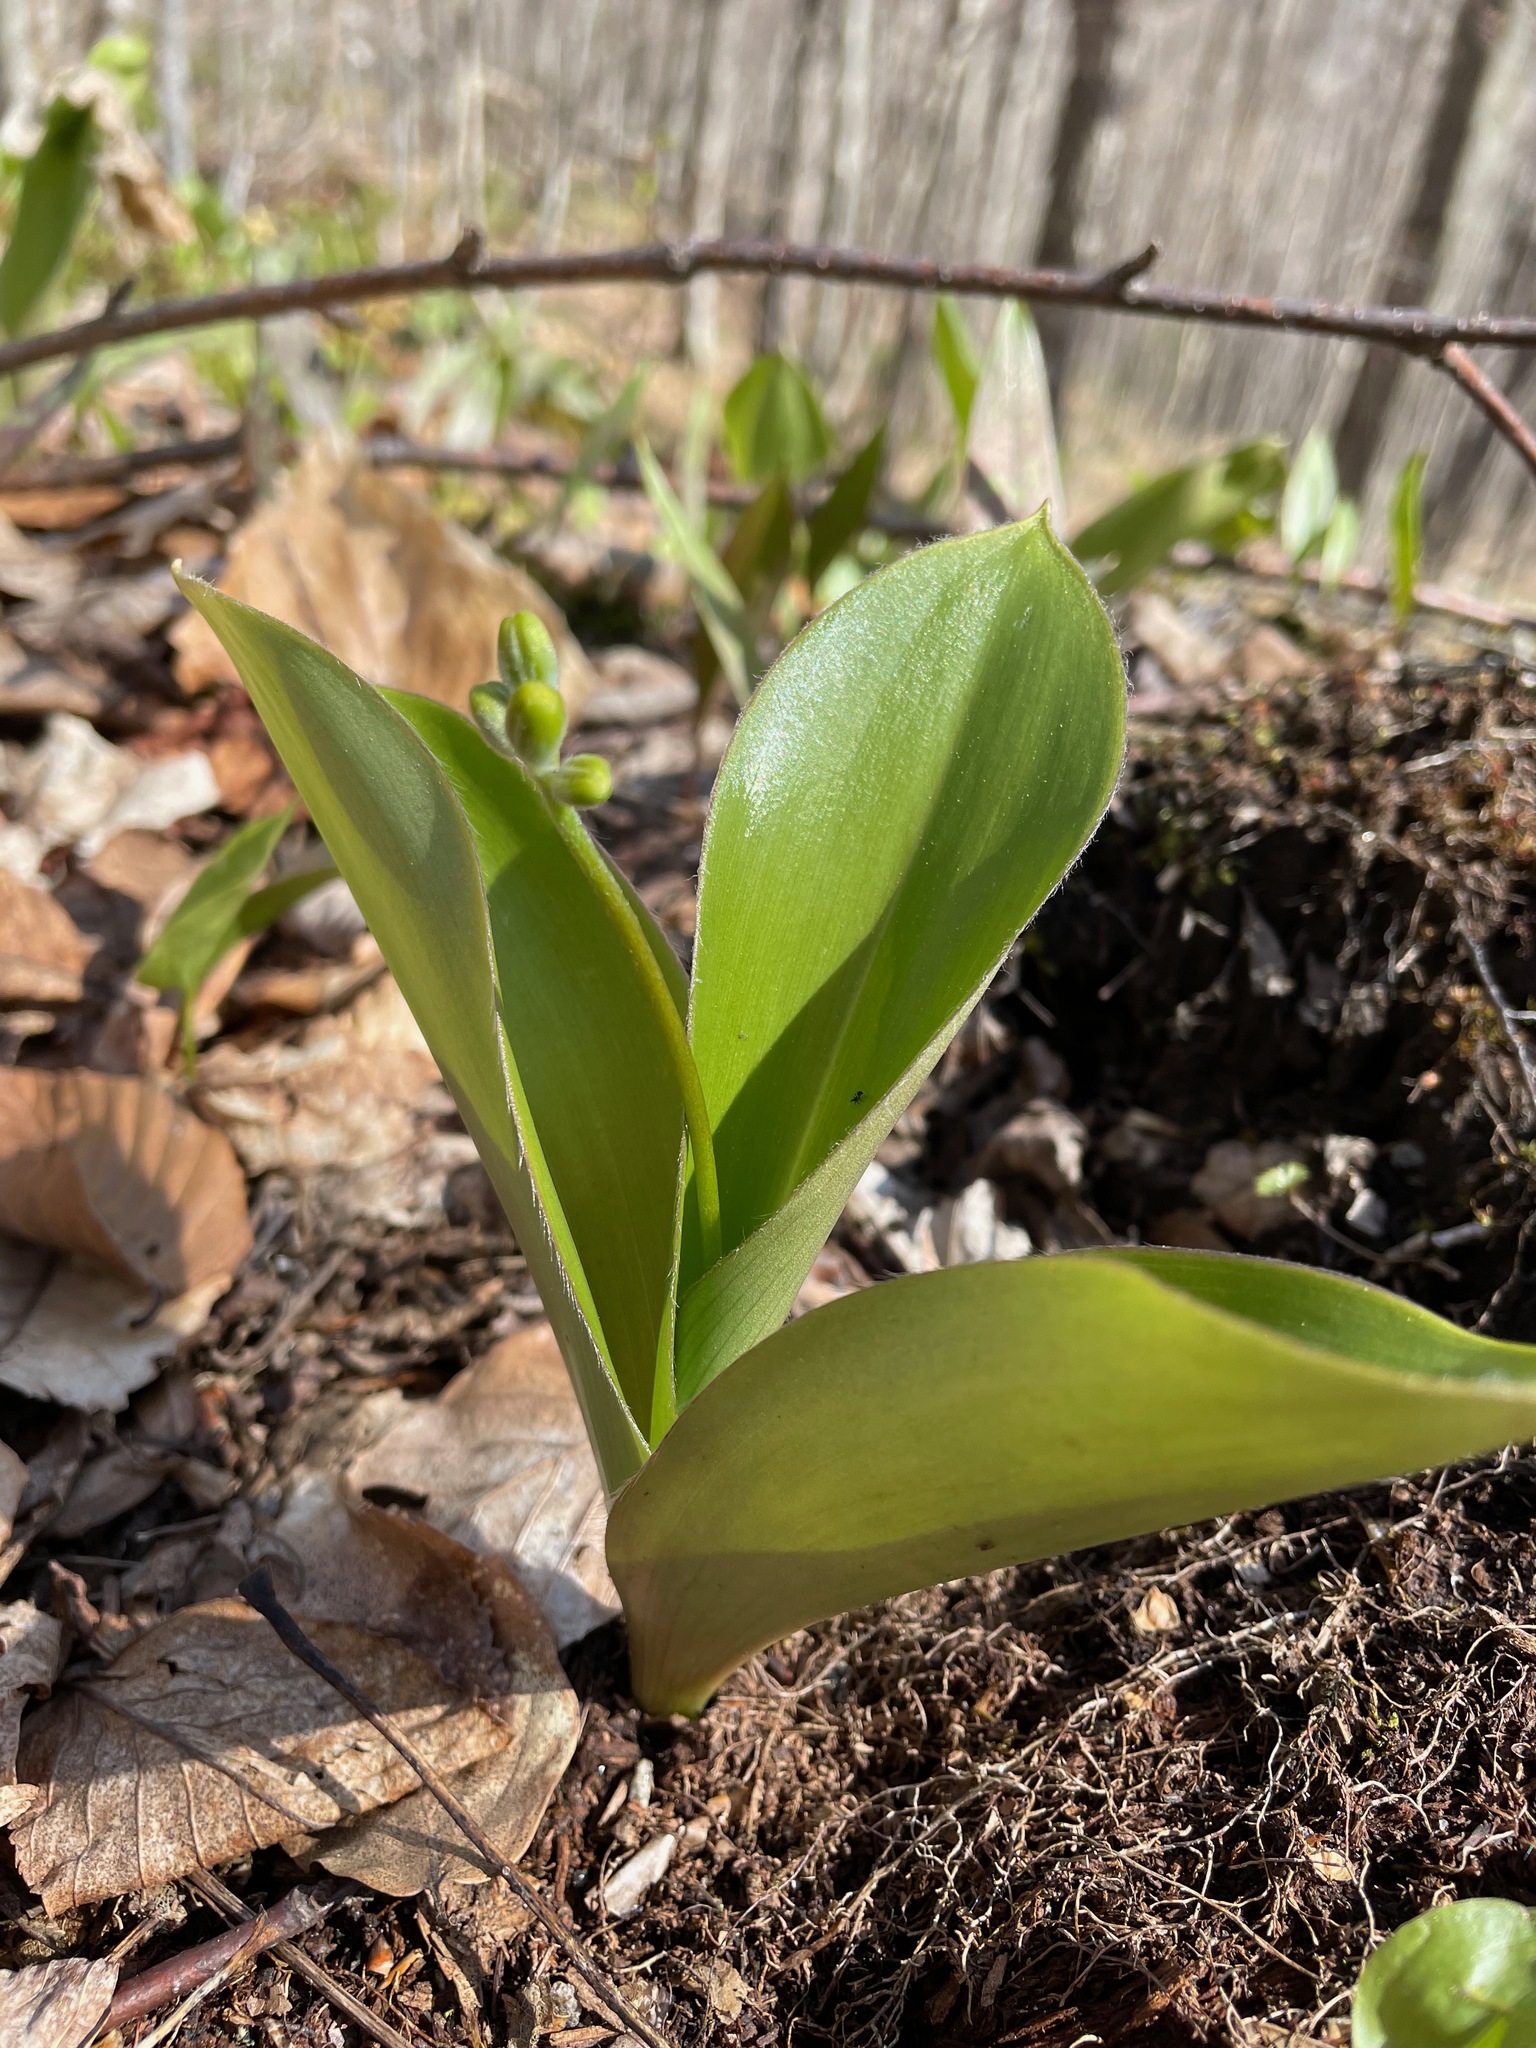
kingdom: Plantae
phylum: Tracheophyta
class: Liliopsida
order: Liliales
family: Liliaceae
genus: Clintonia
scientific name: Clintonia borealis
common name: Yellow clintonia
